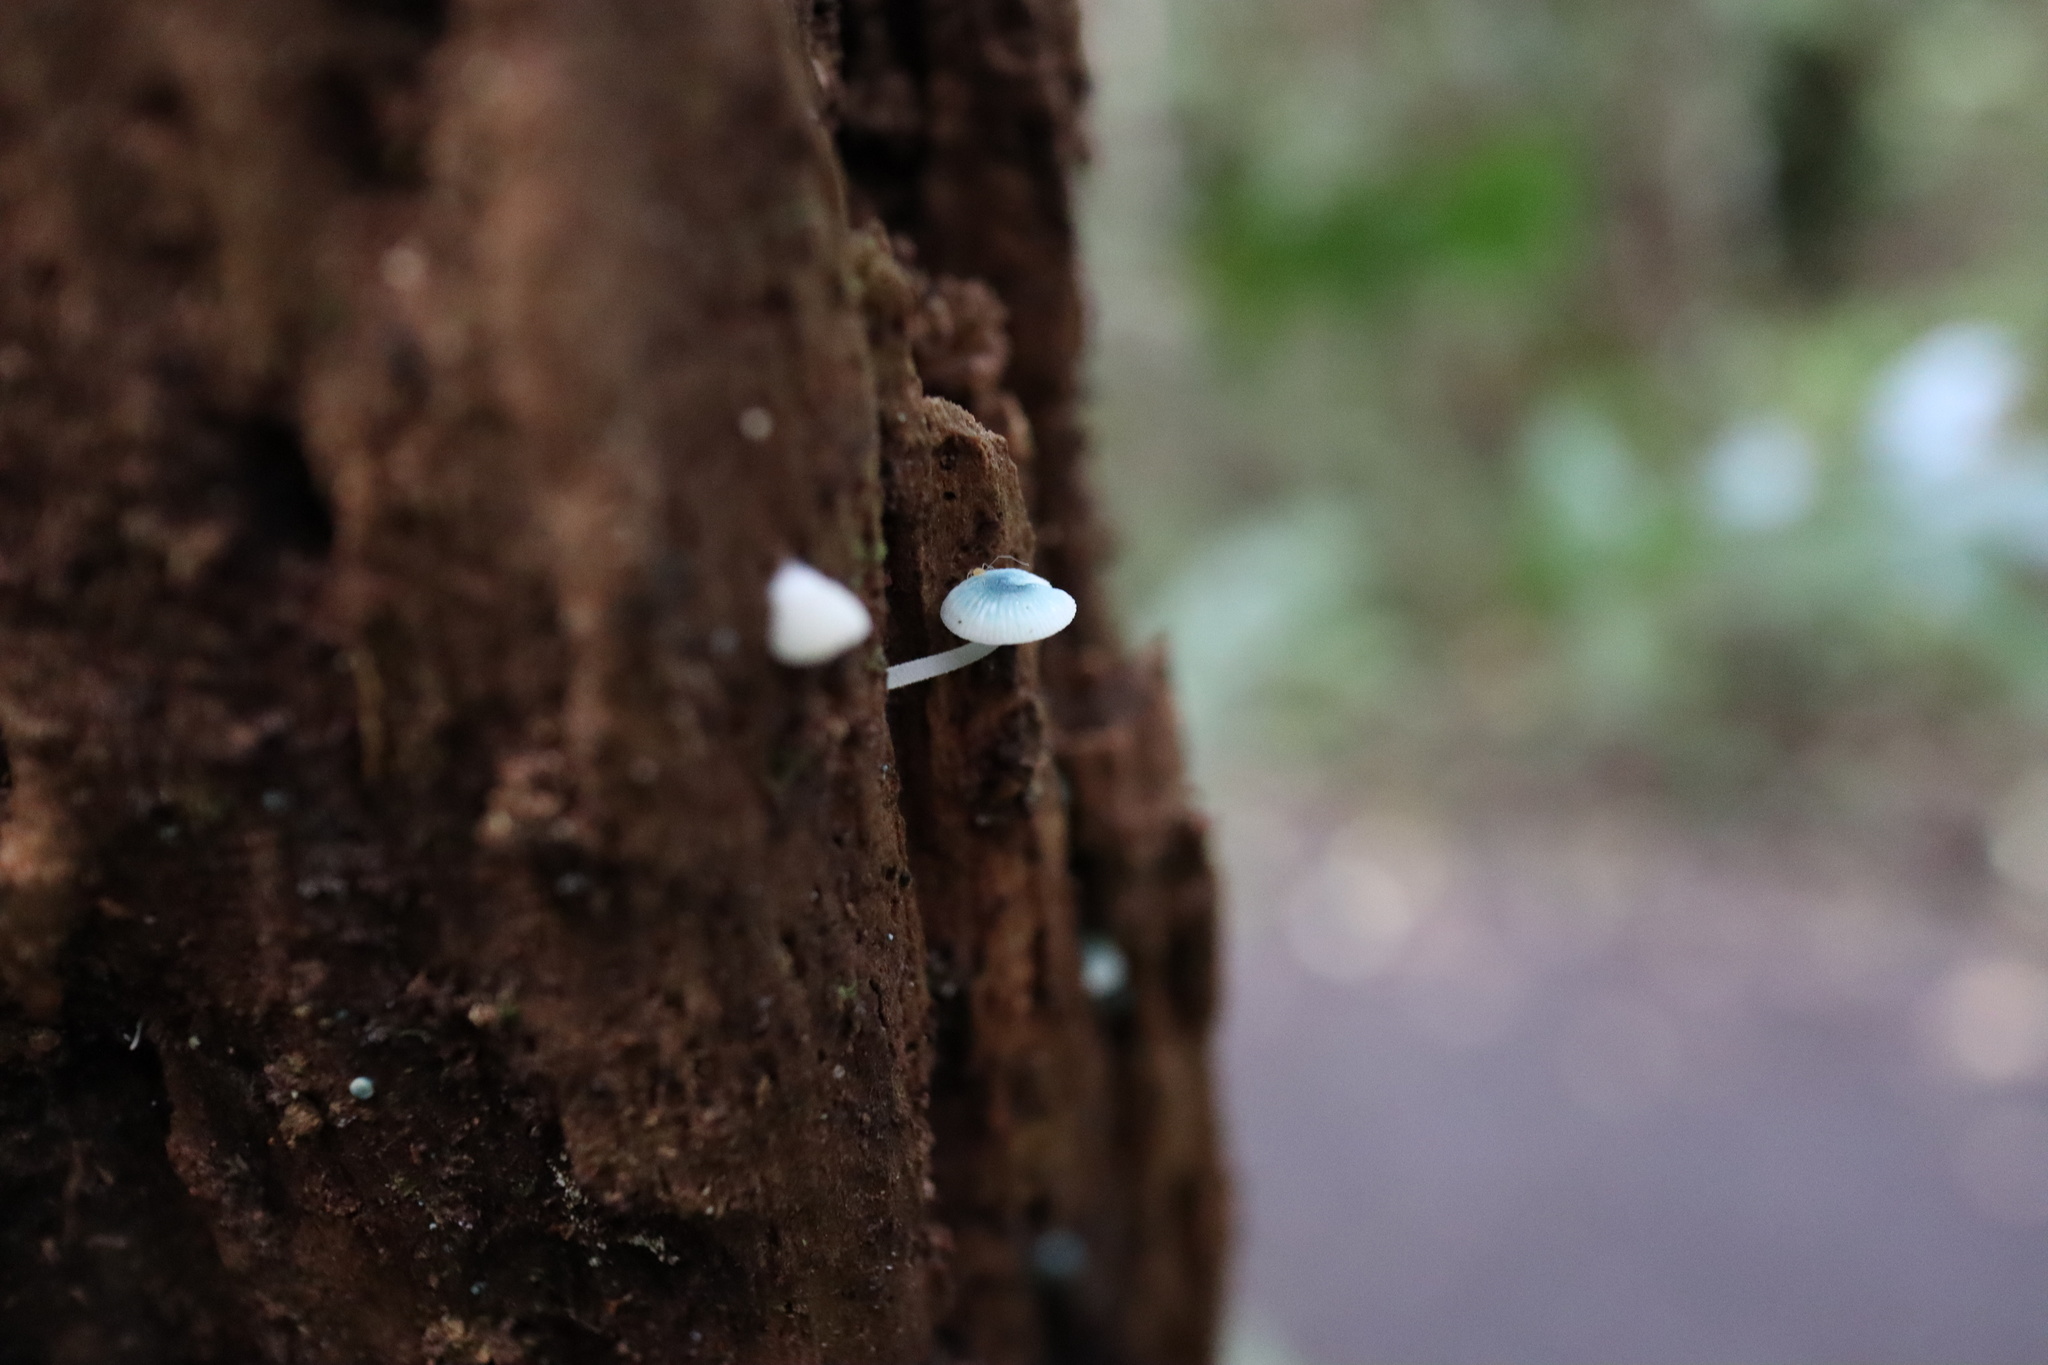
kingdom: Fungi
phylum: Basidiomycota
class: Agaricomycetes
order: Agaricales
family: Mycenaceae
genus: Mycena
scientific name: Mycena interrupta
